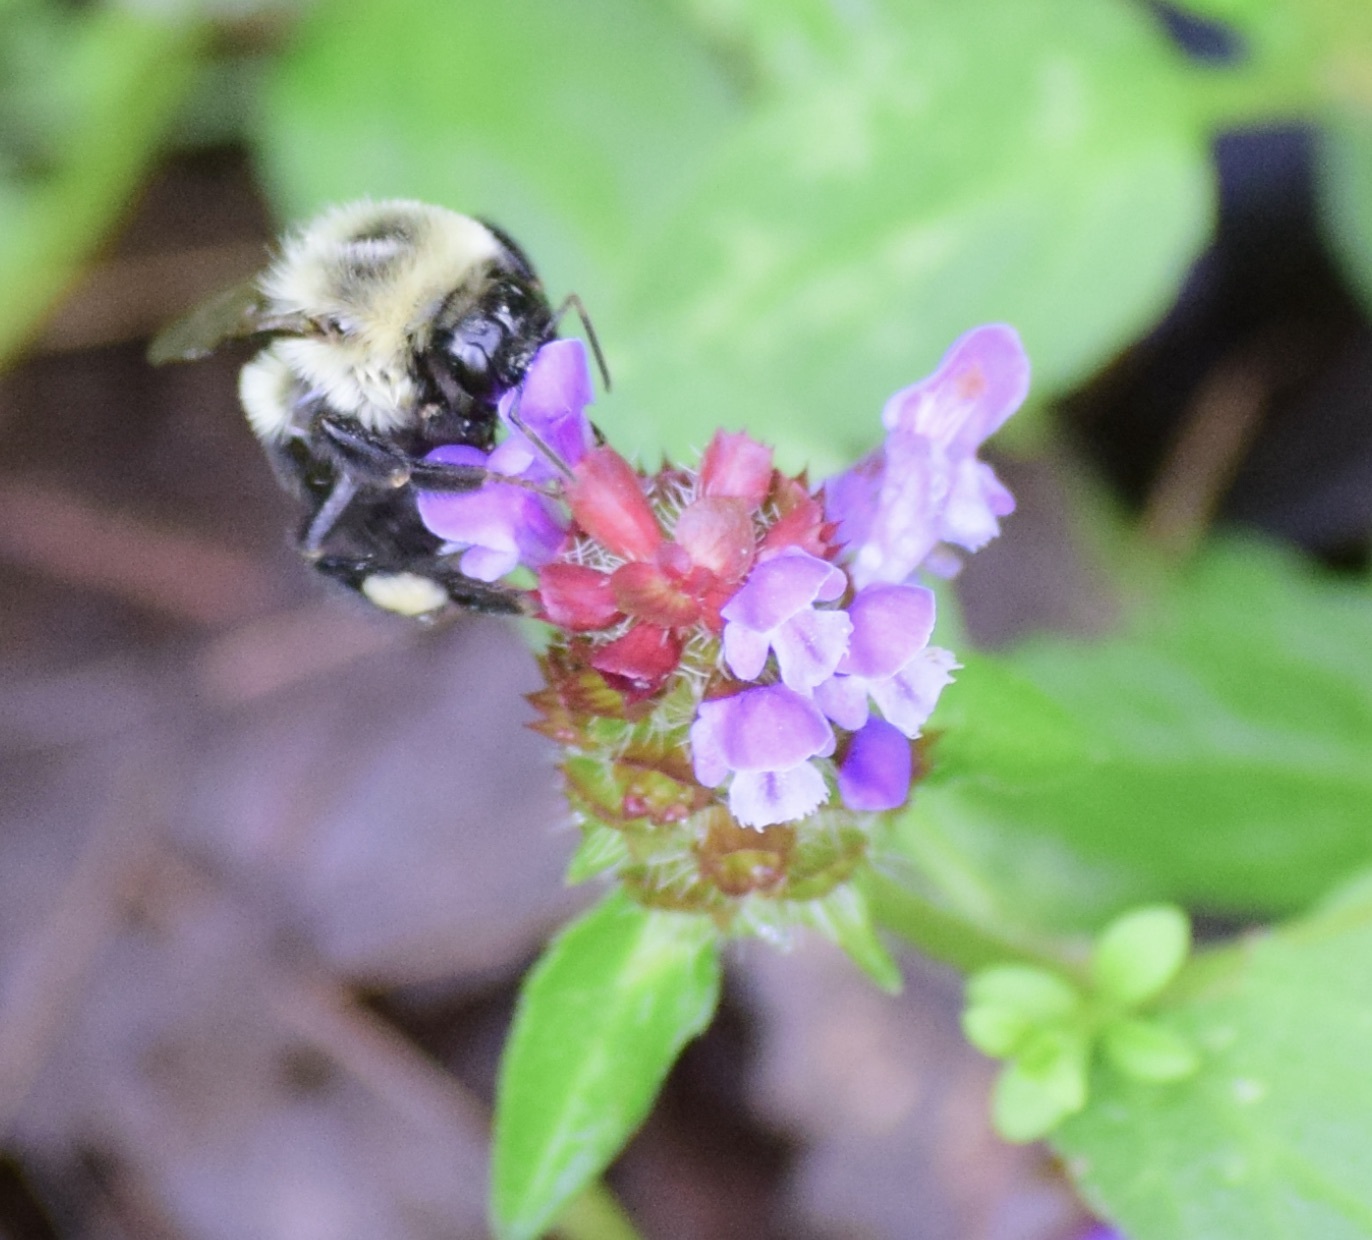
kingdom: Animalia
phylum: Arthropoda
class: Insecta
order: Hymenoptera
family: Apidae
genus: Bombus
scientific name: Bombus impatiens
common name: Common eastern bumble bee
